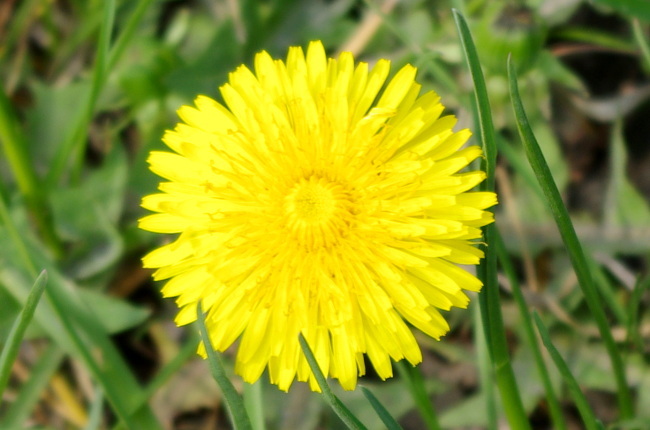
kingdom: Plantae
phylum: Tracheophyta
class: Magnoliopsida
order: Asterales
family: Asteraceae
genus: Taraxacum
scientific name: Taraxacum officinale
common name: Common dandelion
